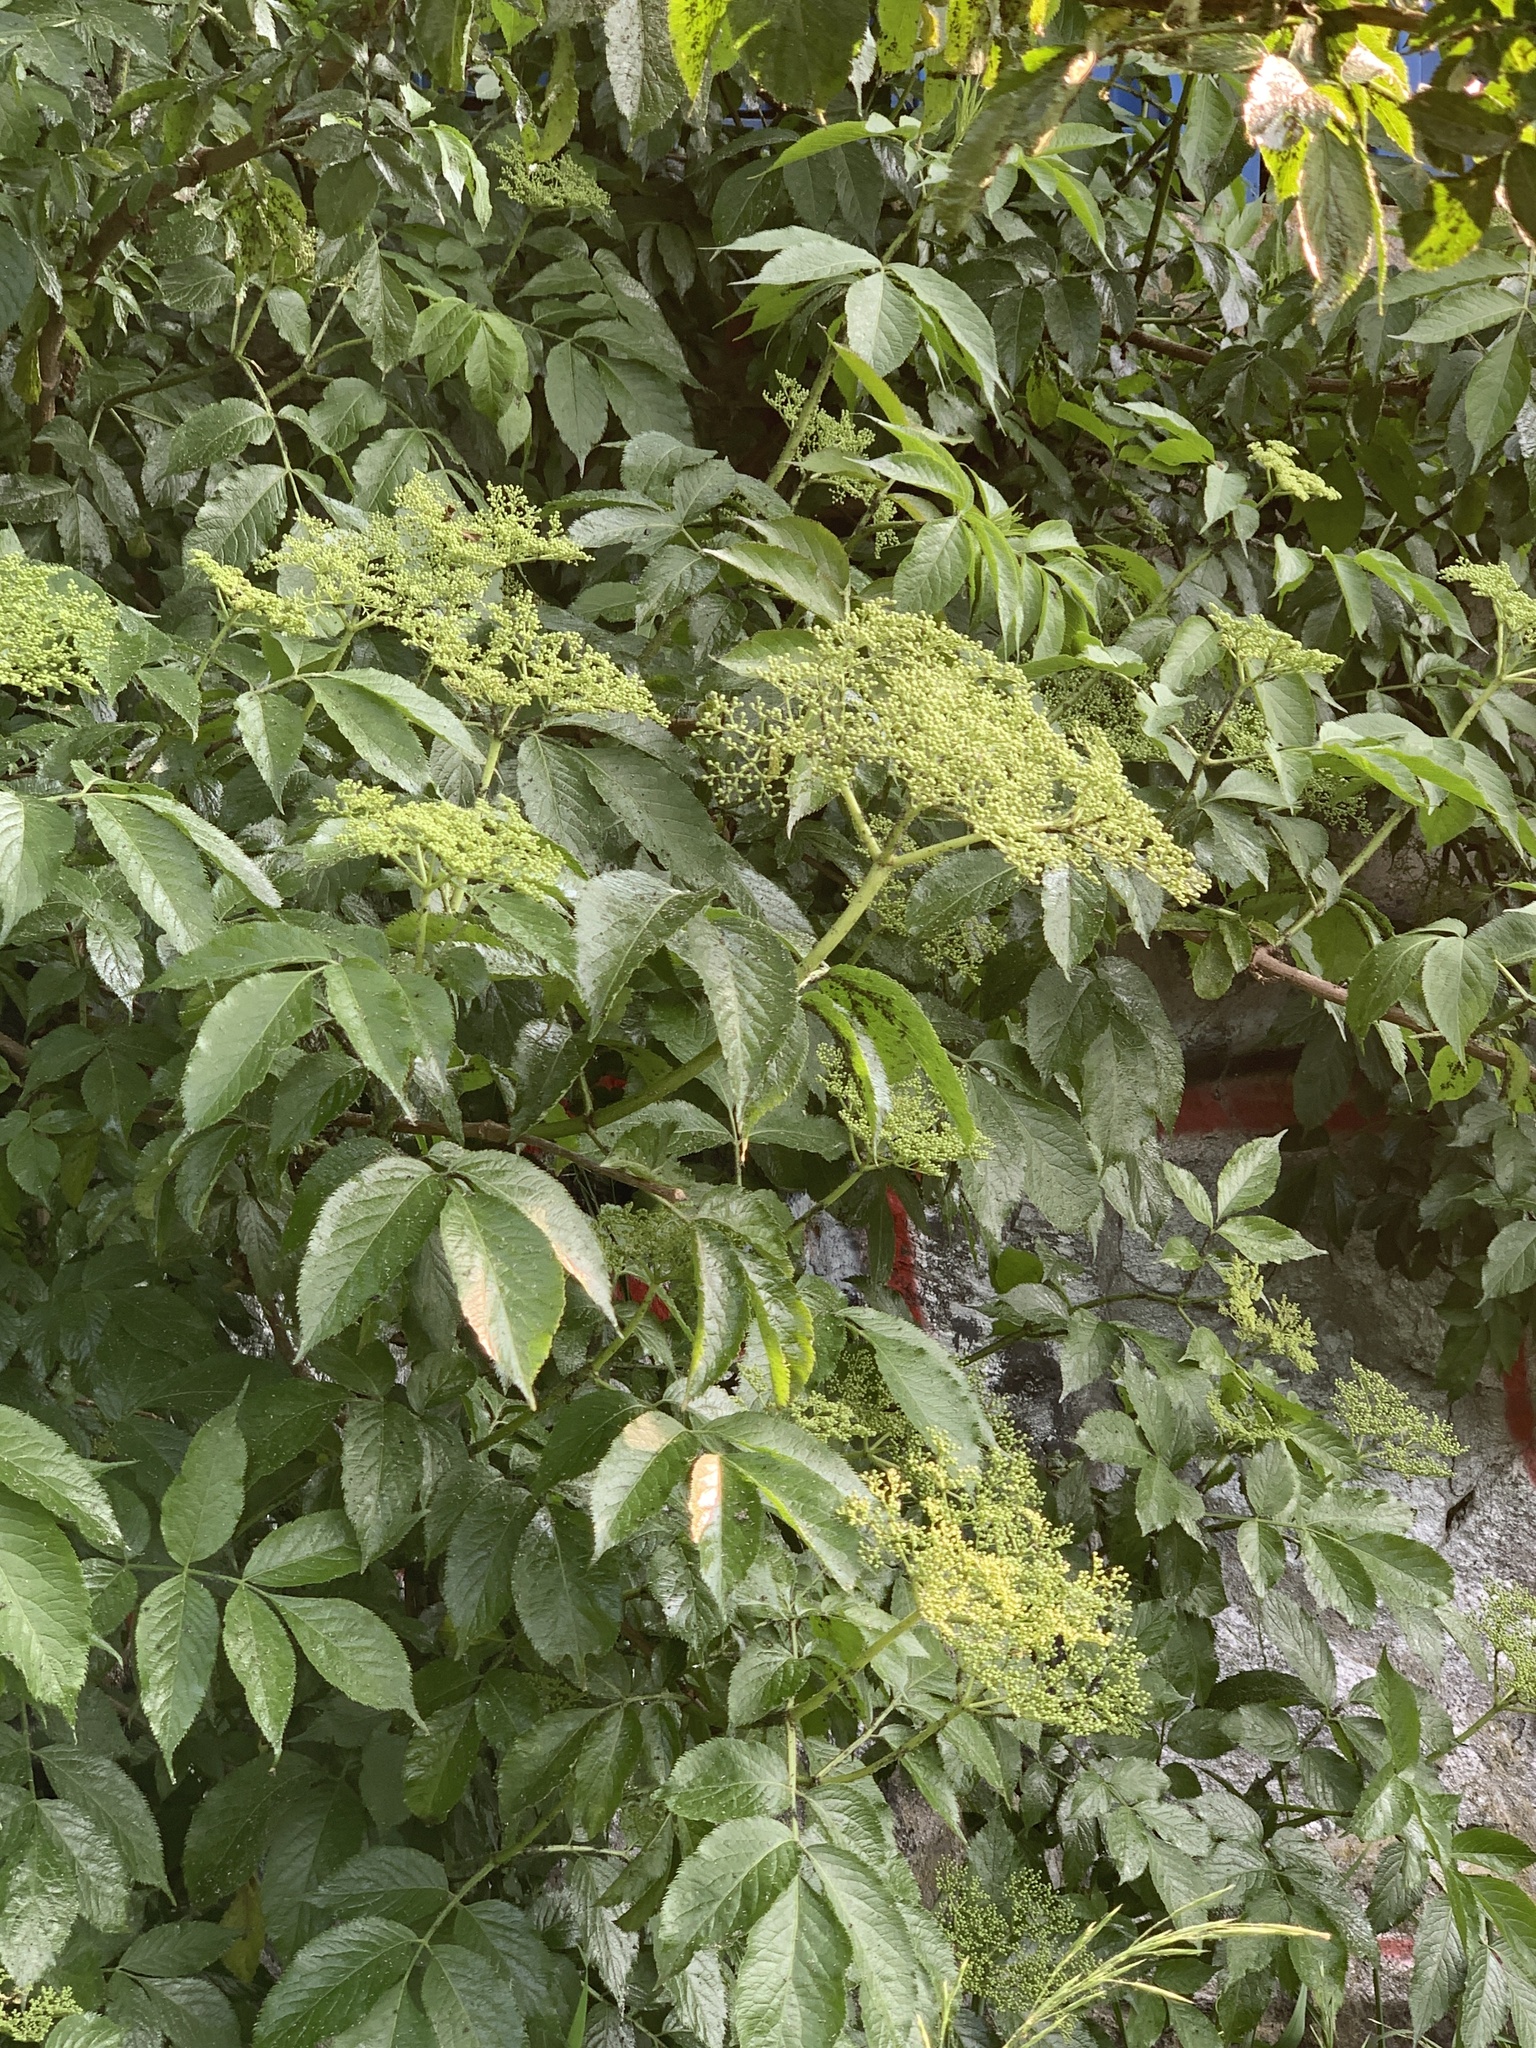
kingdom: Plantae
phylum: Tracheophyta
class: Magnoliopsida
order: Dipsacales
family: Viburnaceae
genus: Sambucus
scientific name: Sambucus nigra
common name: Elder
